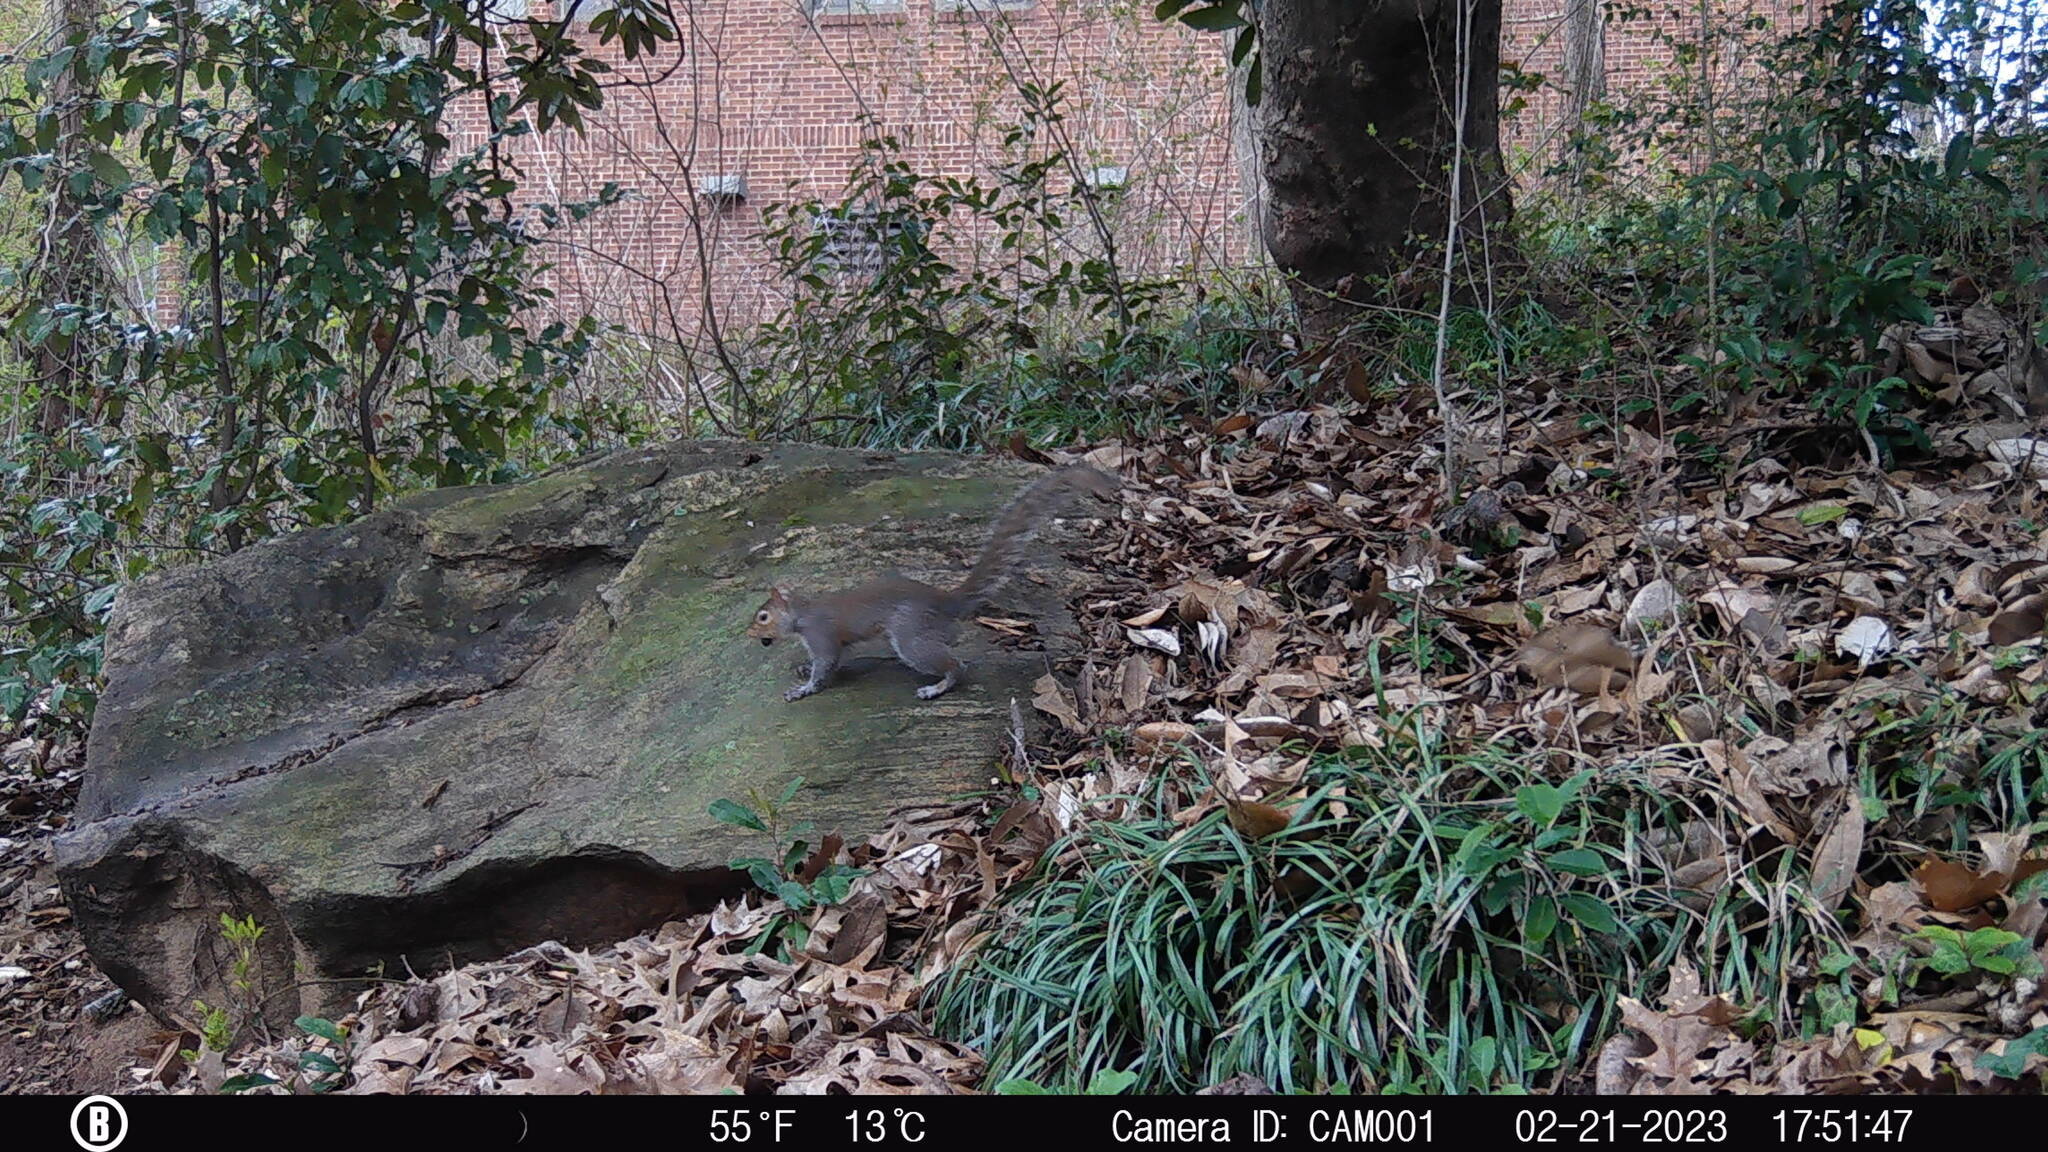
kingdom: Animalia
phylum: Chordata
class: Mammalia
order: Rodentia
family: Sciuridae
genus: Sciurus
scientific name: Sciurus carolinensis
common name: Eastern gray squirrel
